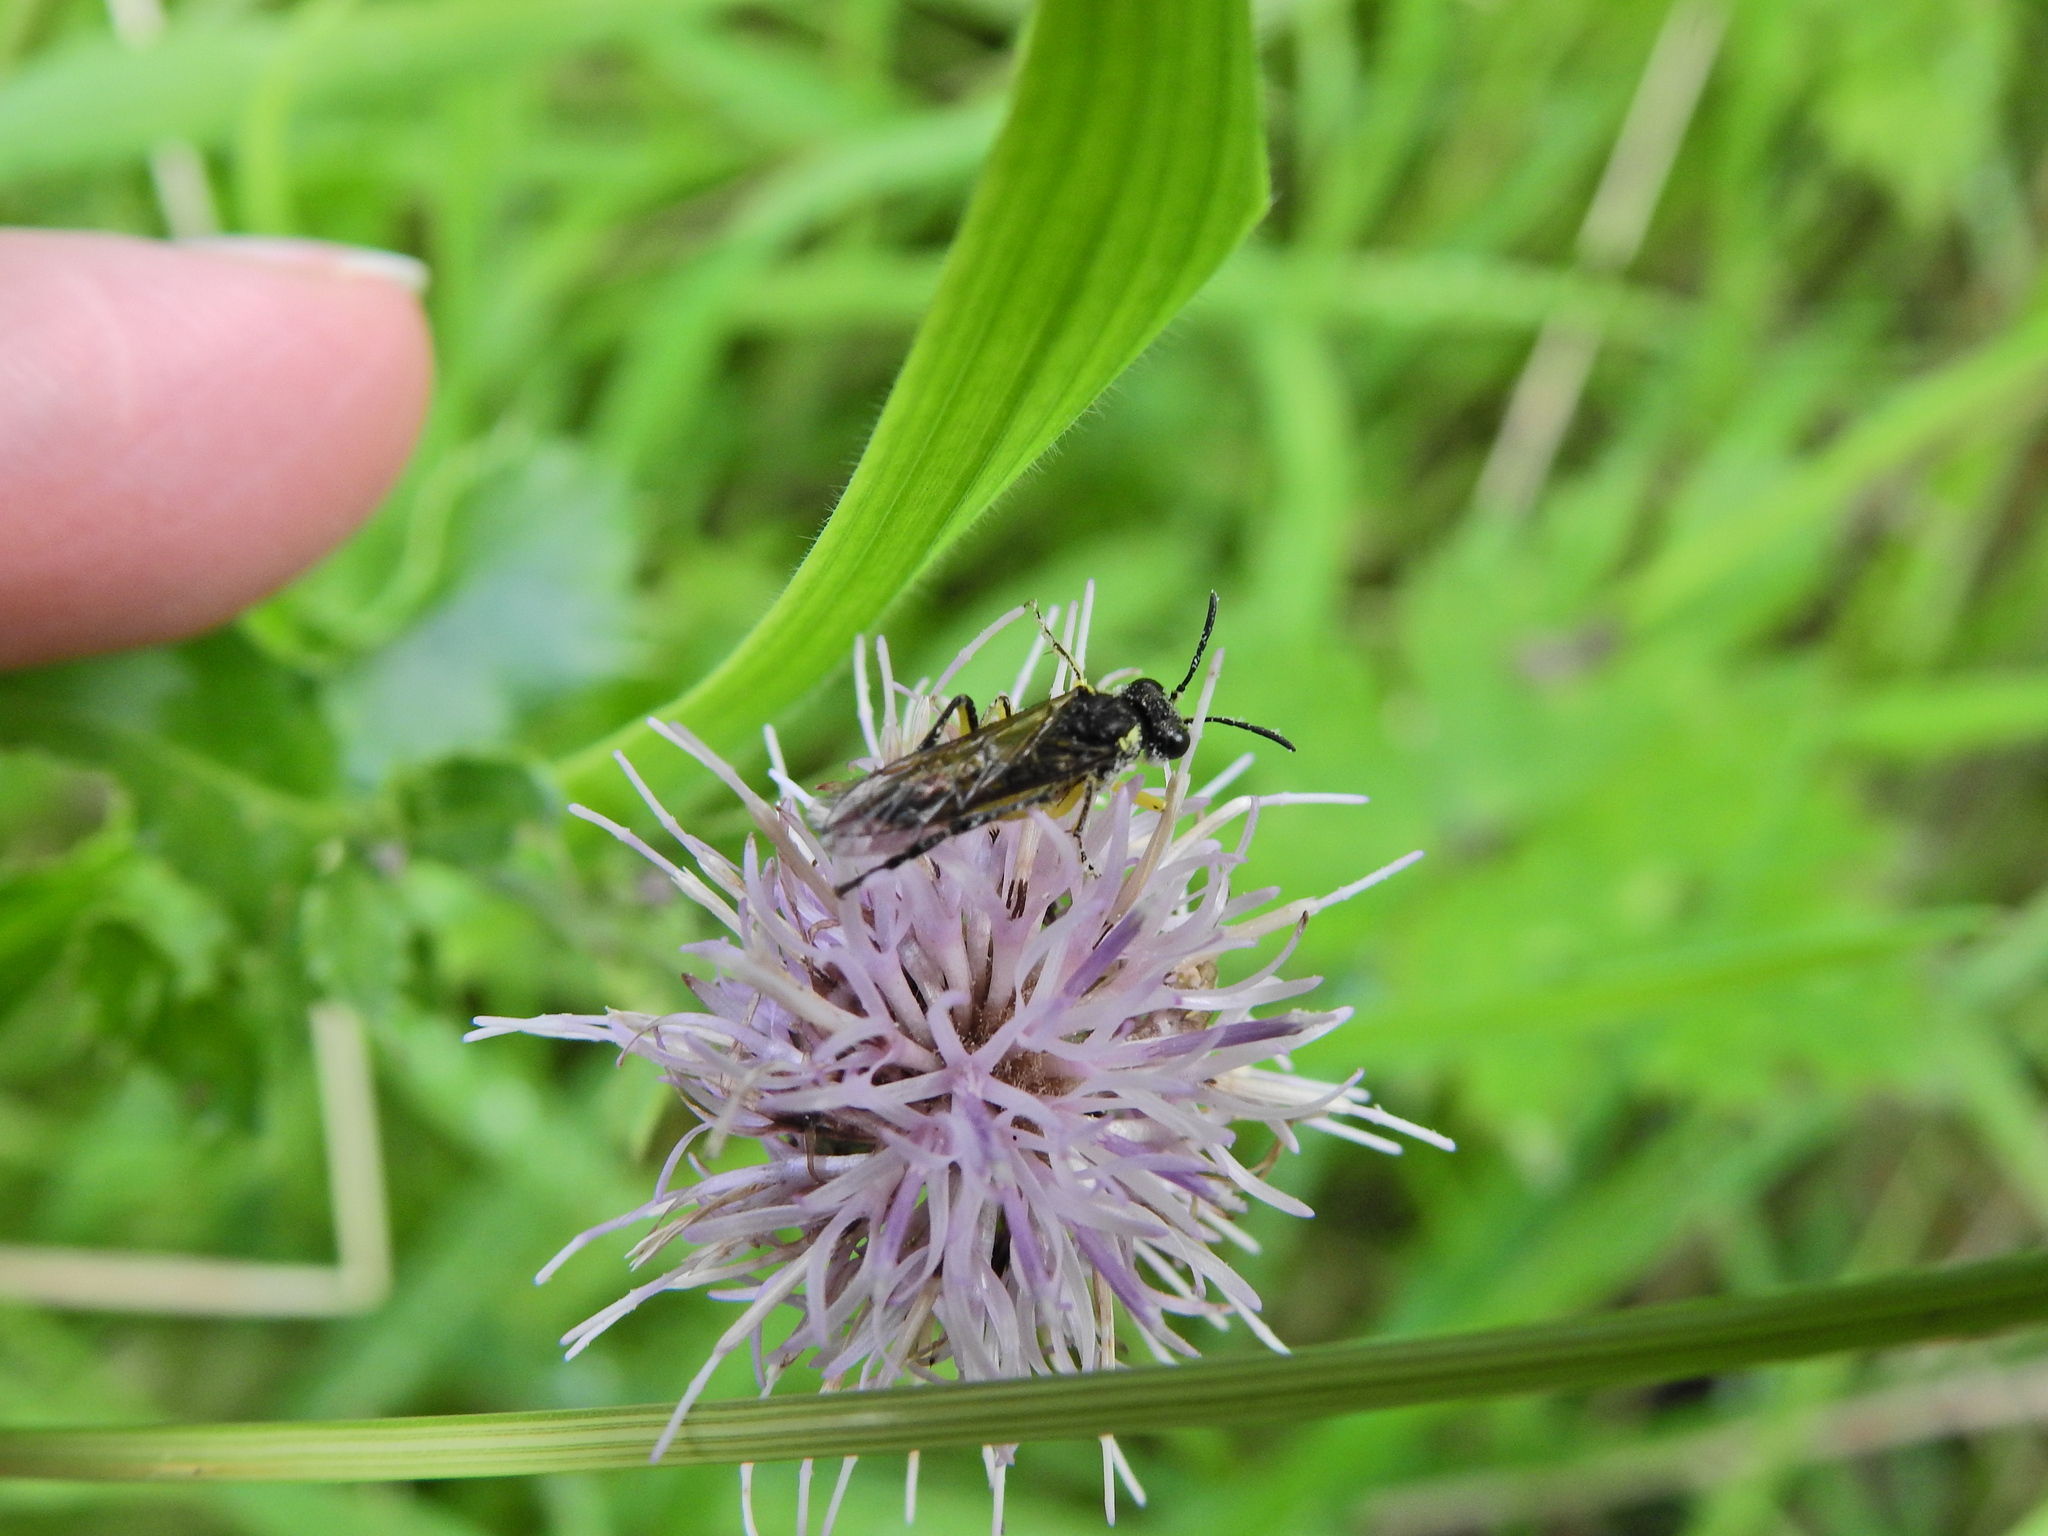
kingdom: Animalia
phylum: Arthropoda
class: Insecta
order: Hymenoptera
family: Tenthredinidae
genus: Tenthredo
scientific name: Tenthredo
